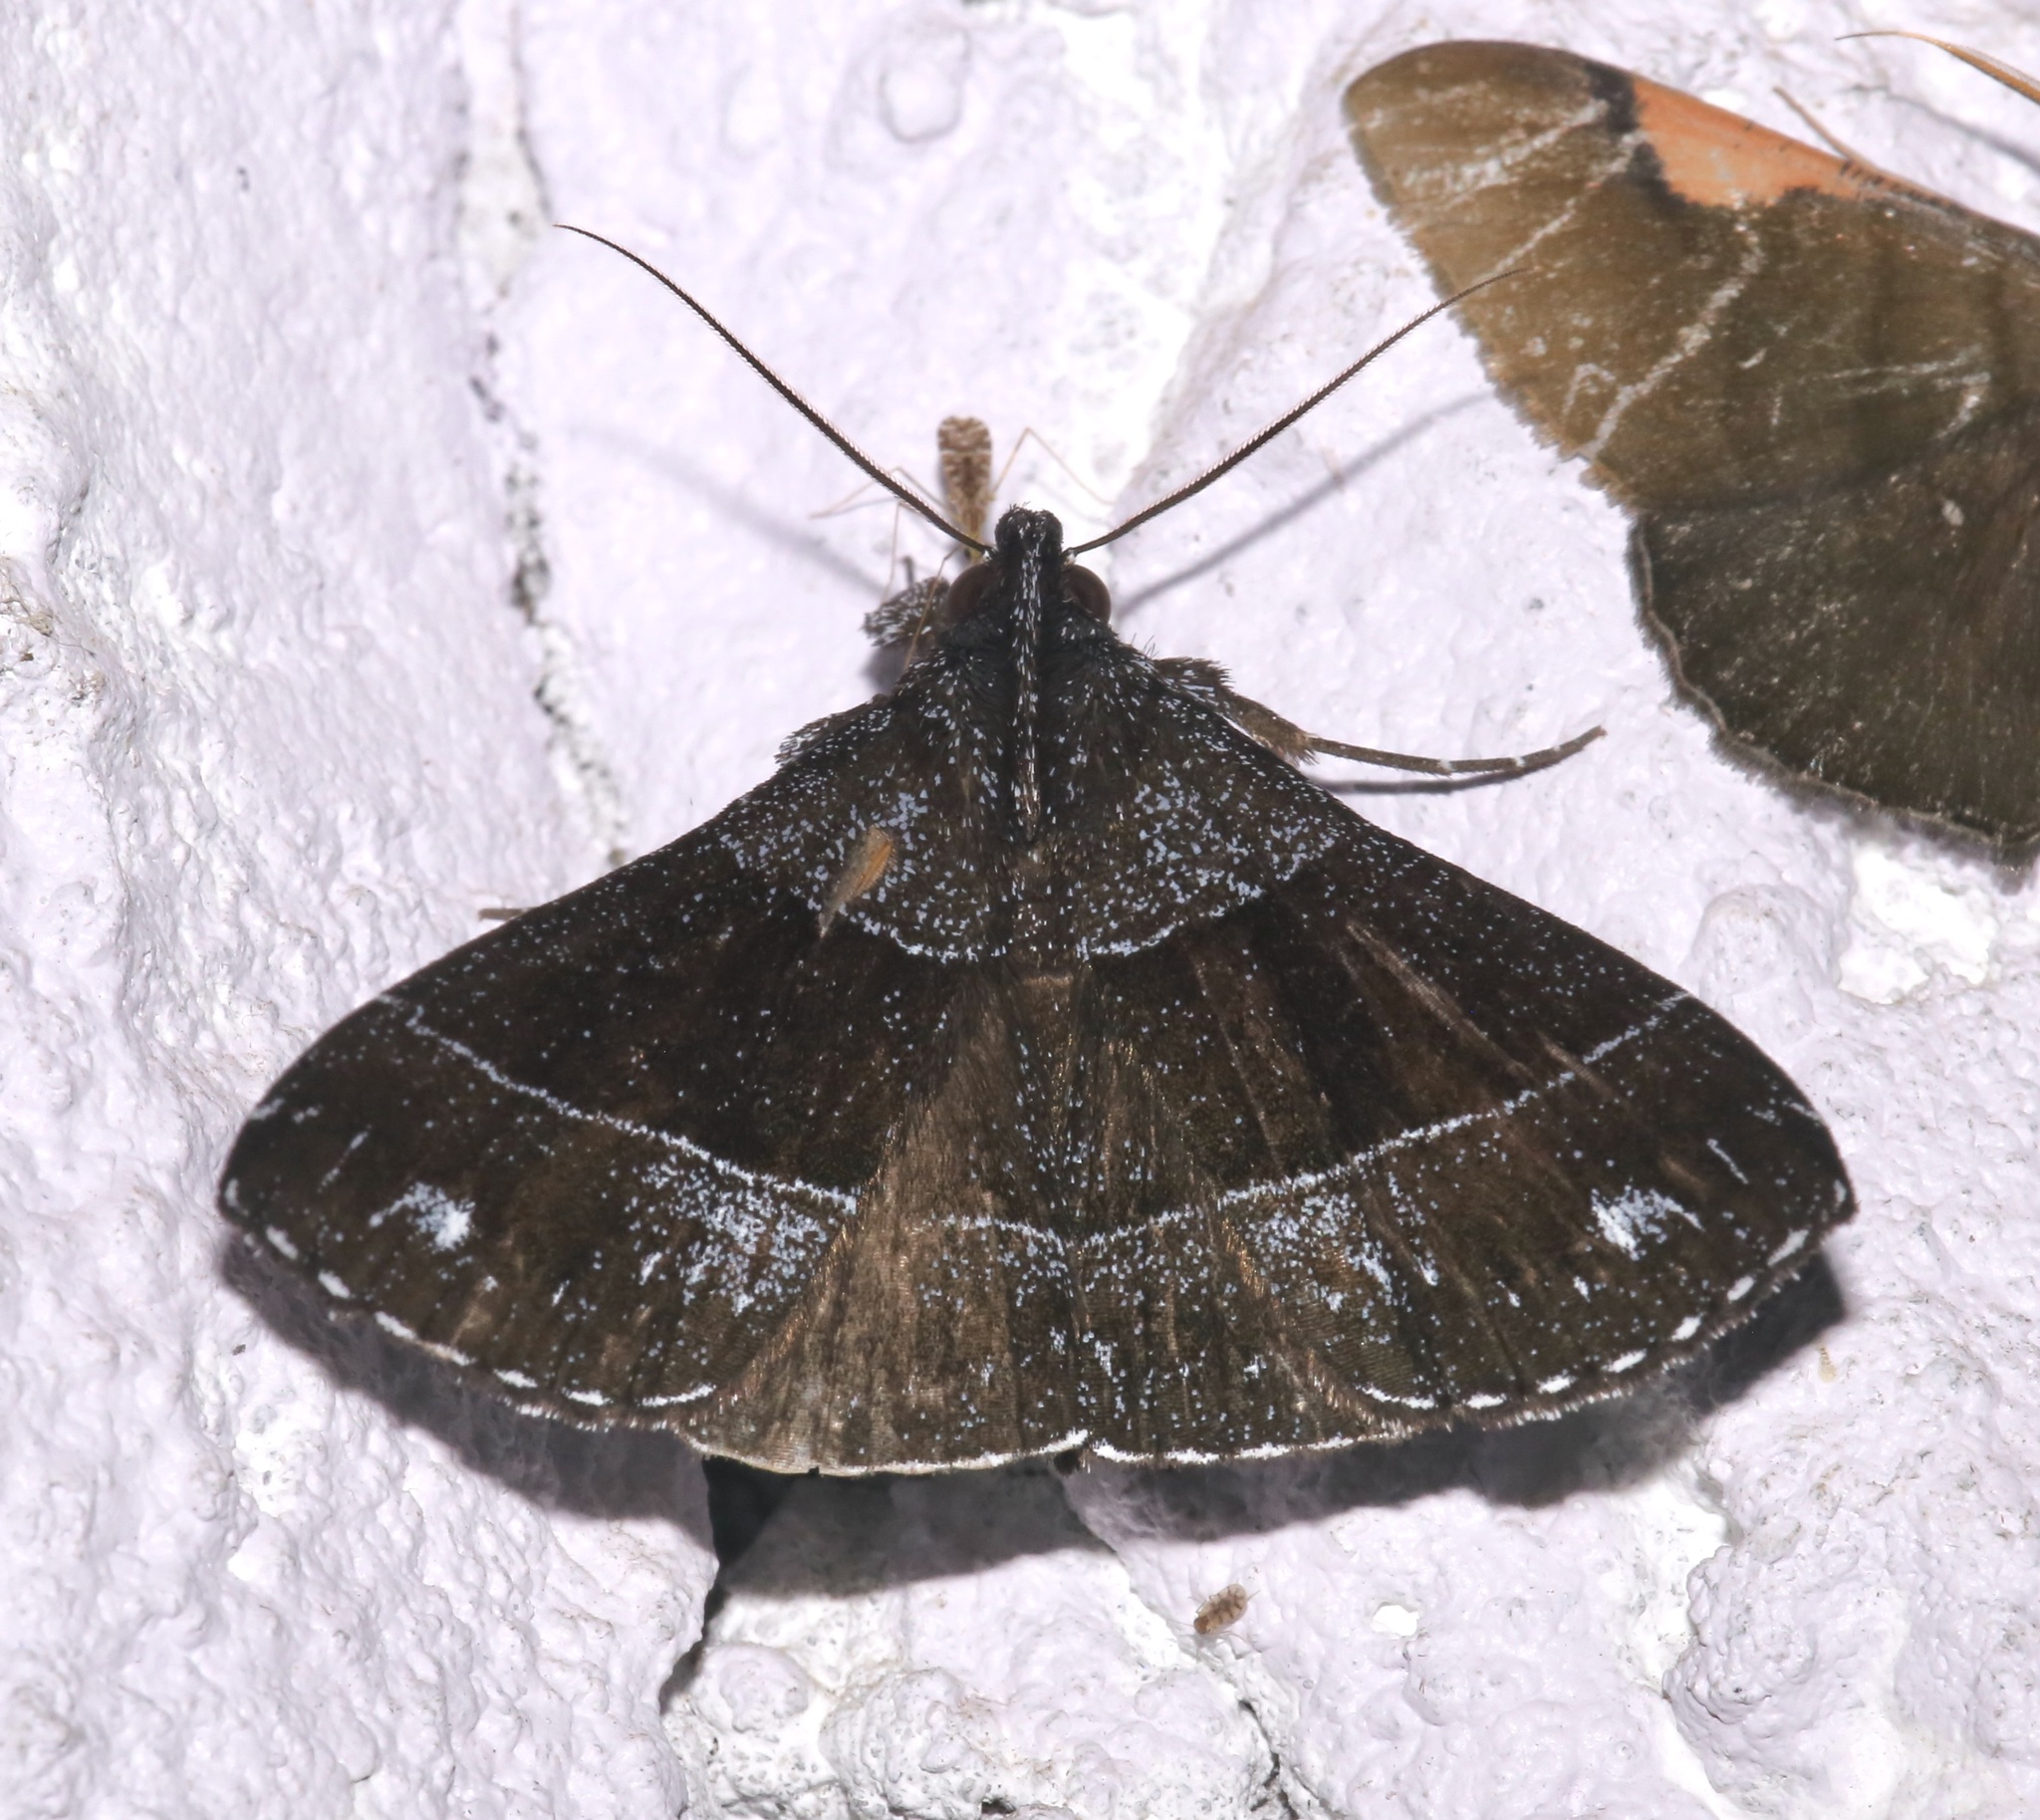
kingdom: Animalia
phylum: Arthropoda
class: Insecta
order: Lepidoptera
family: Erebidae
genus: Rejectaria
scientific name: Rejectaria atrax
